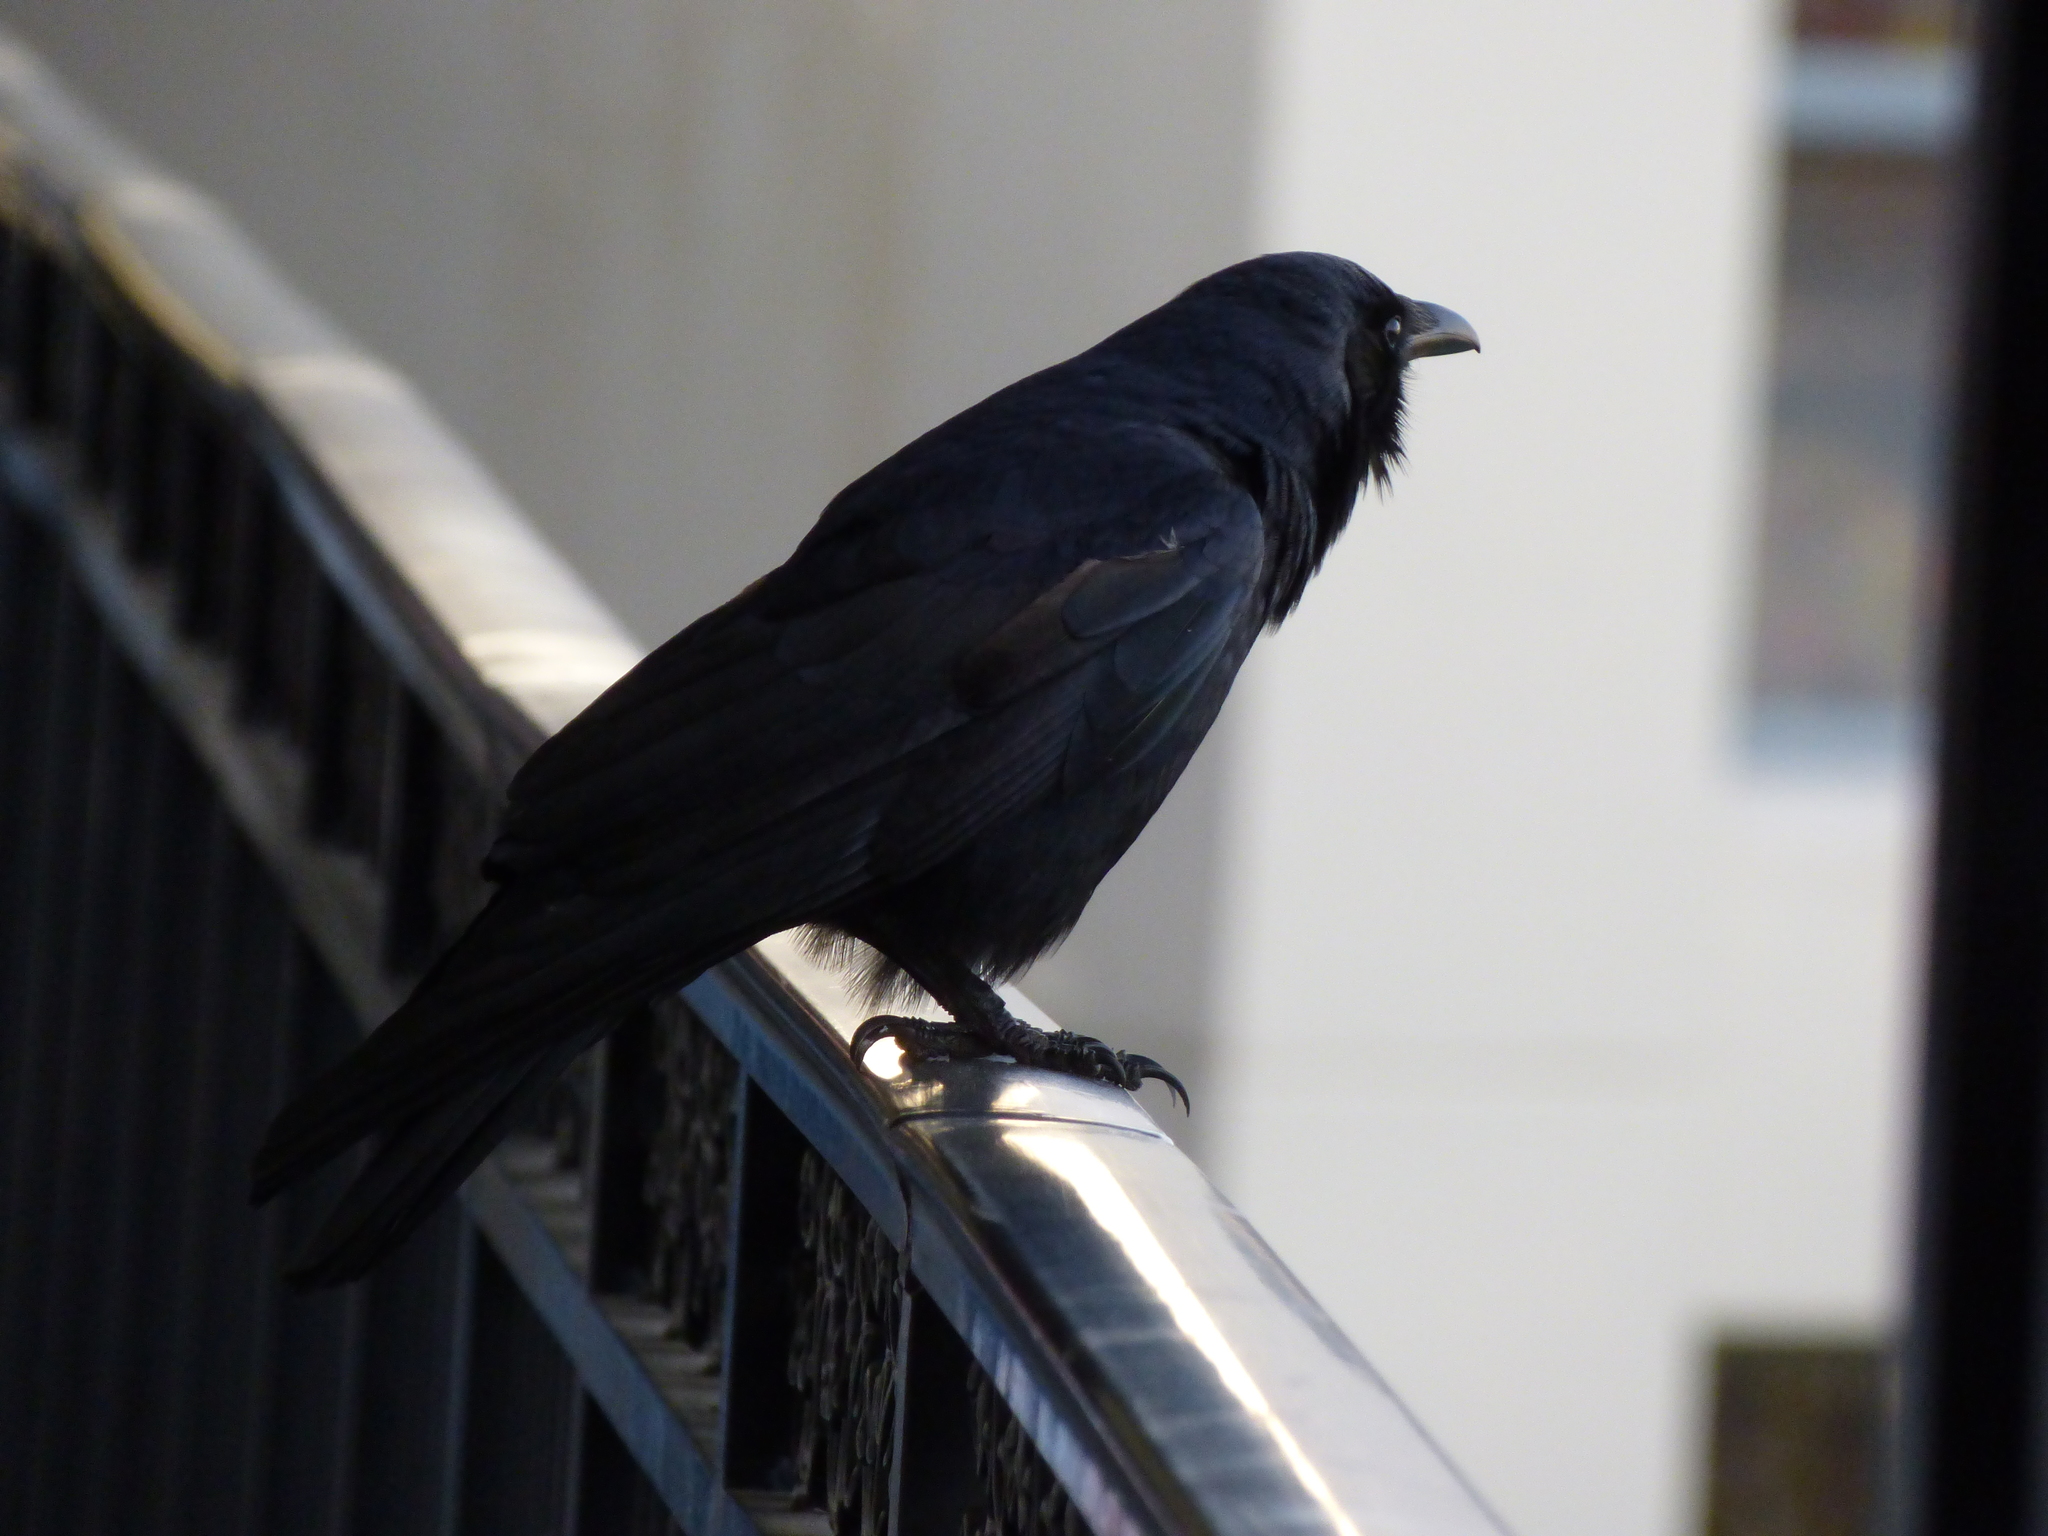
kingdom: Animalia
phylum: Chordata
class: Aves
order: Passeriformes
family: Corvidae
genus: Corvus
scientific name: Corvus ossifragus
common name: Fish crow
